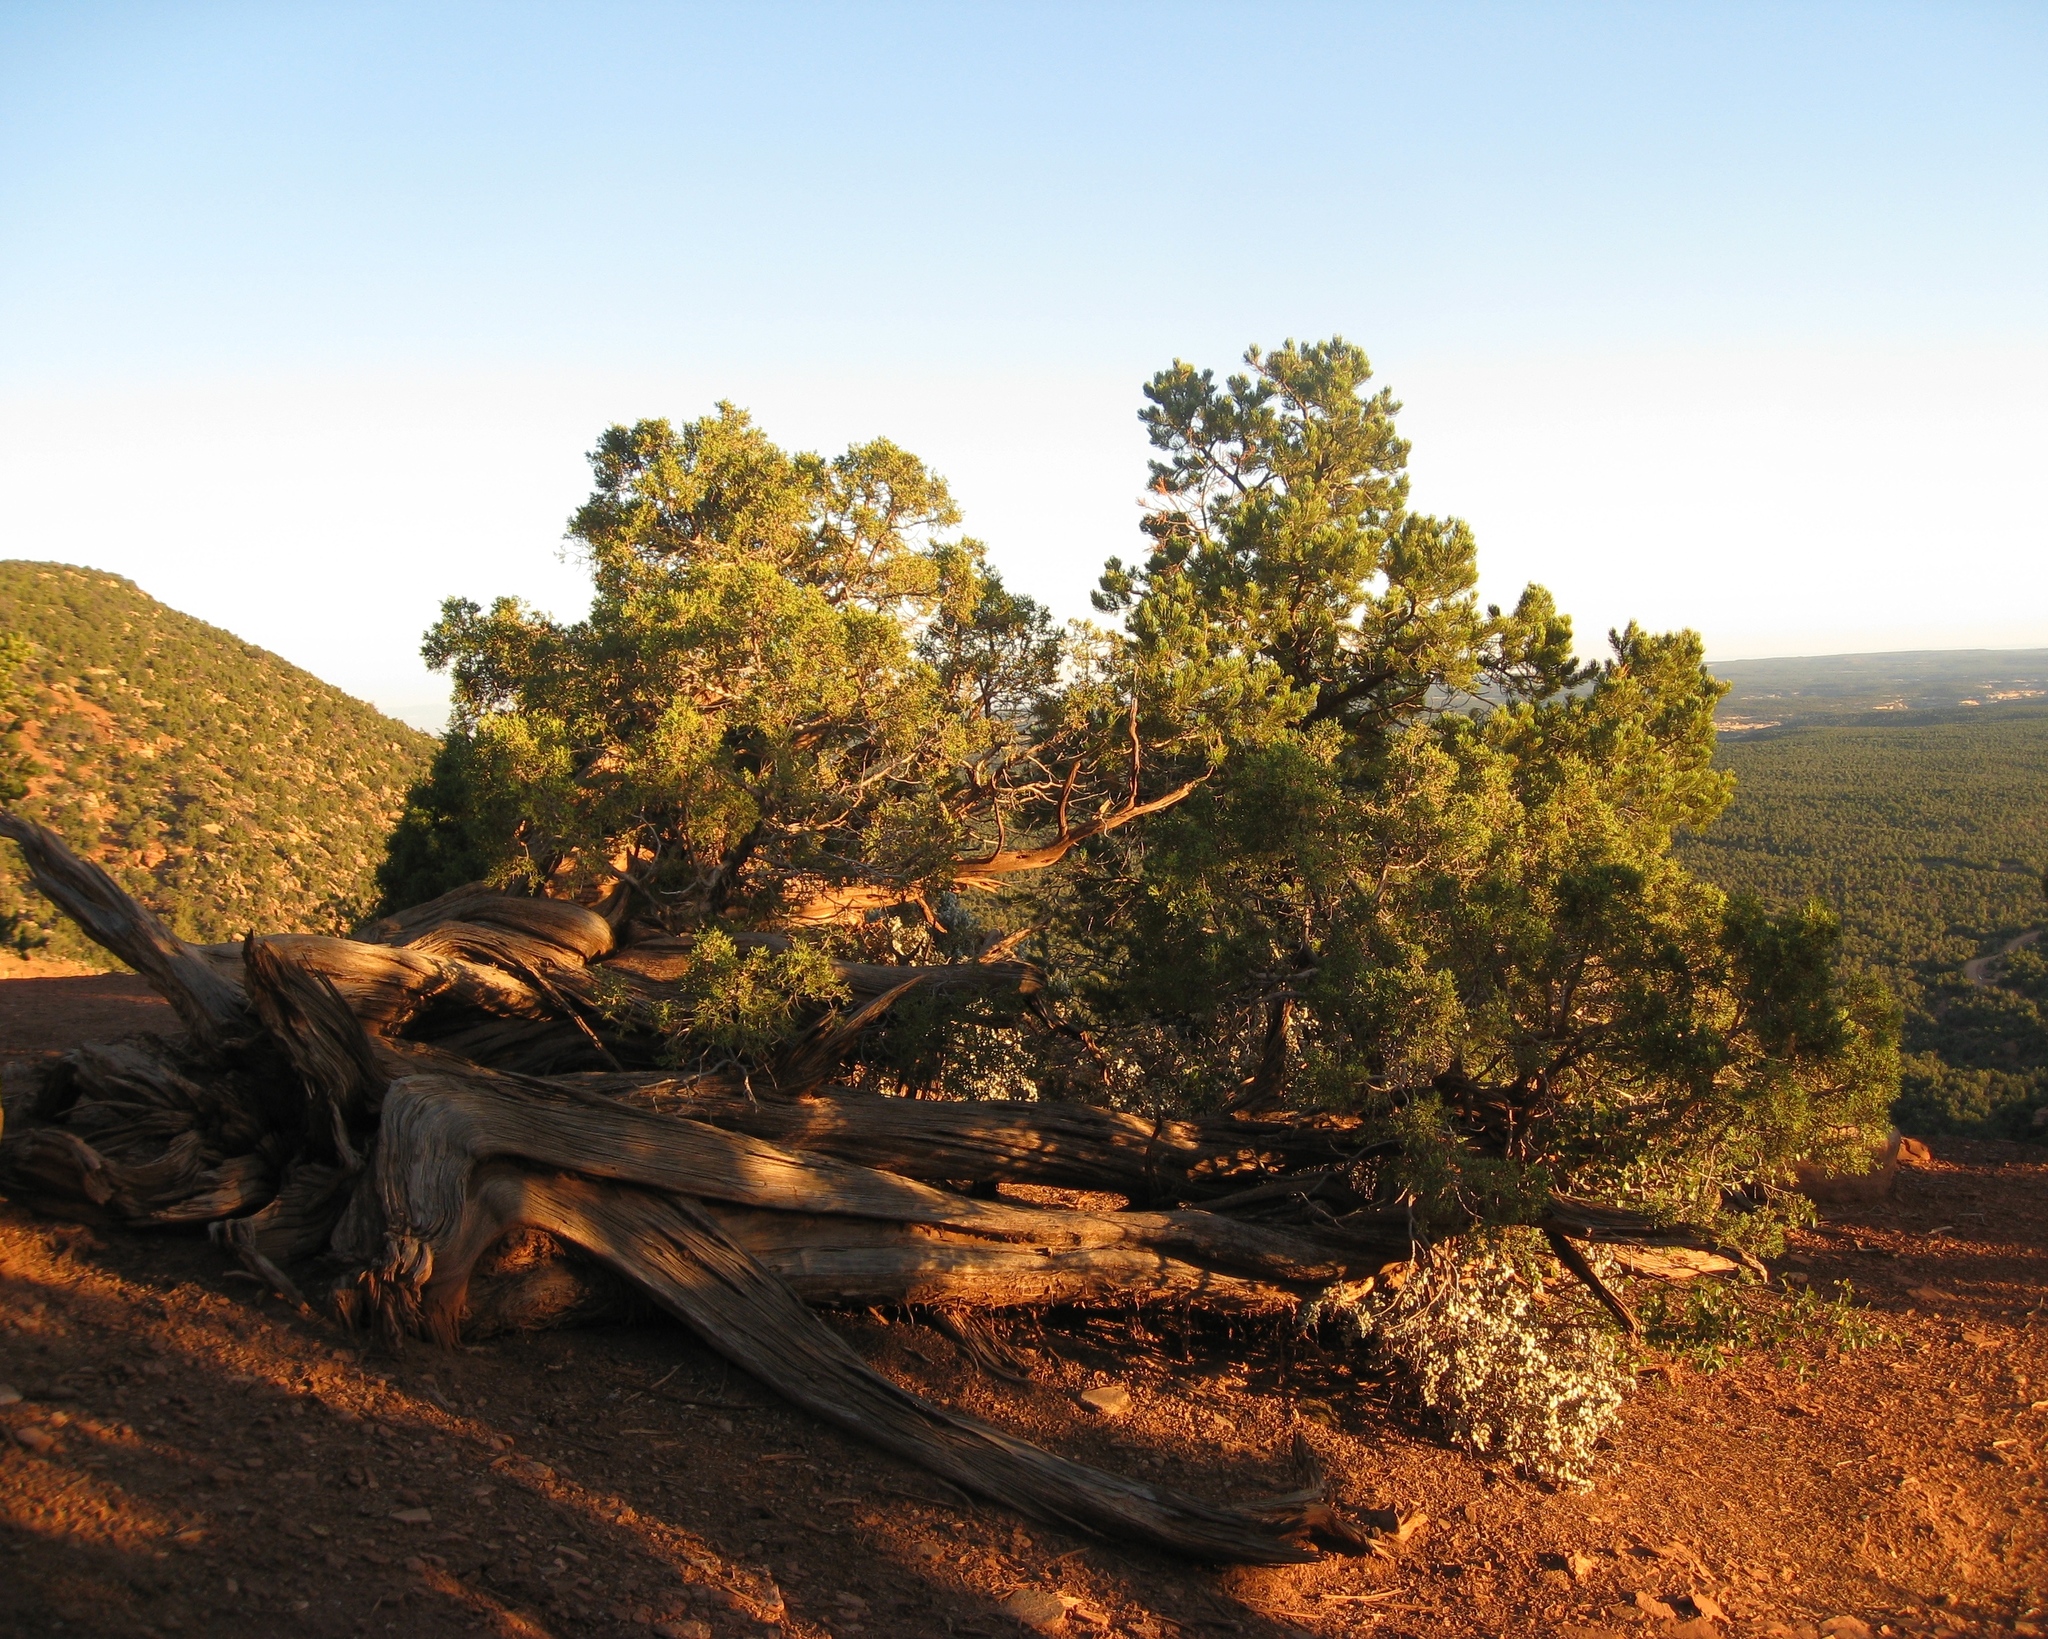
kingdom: Plantae
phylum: Tracheophyta
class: Pinopsida
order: Pinales
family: Cupressaceae
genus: Juniperus
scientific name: Juniperus osteosperma
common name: Utah juniper
